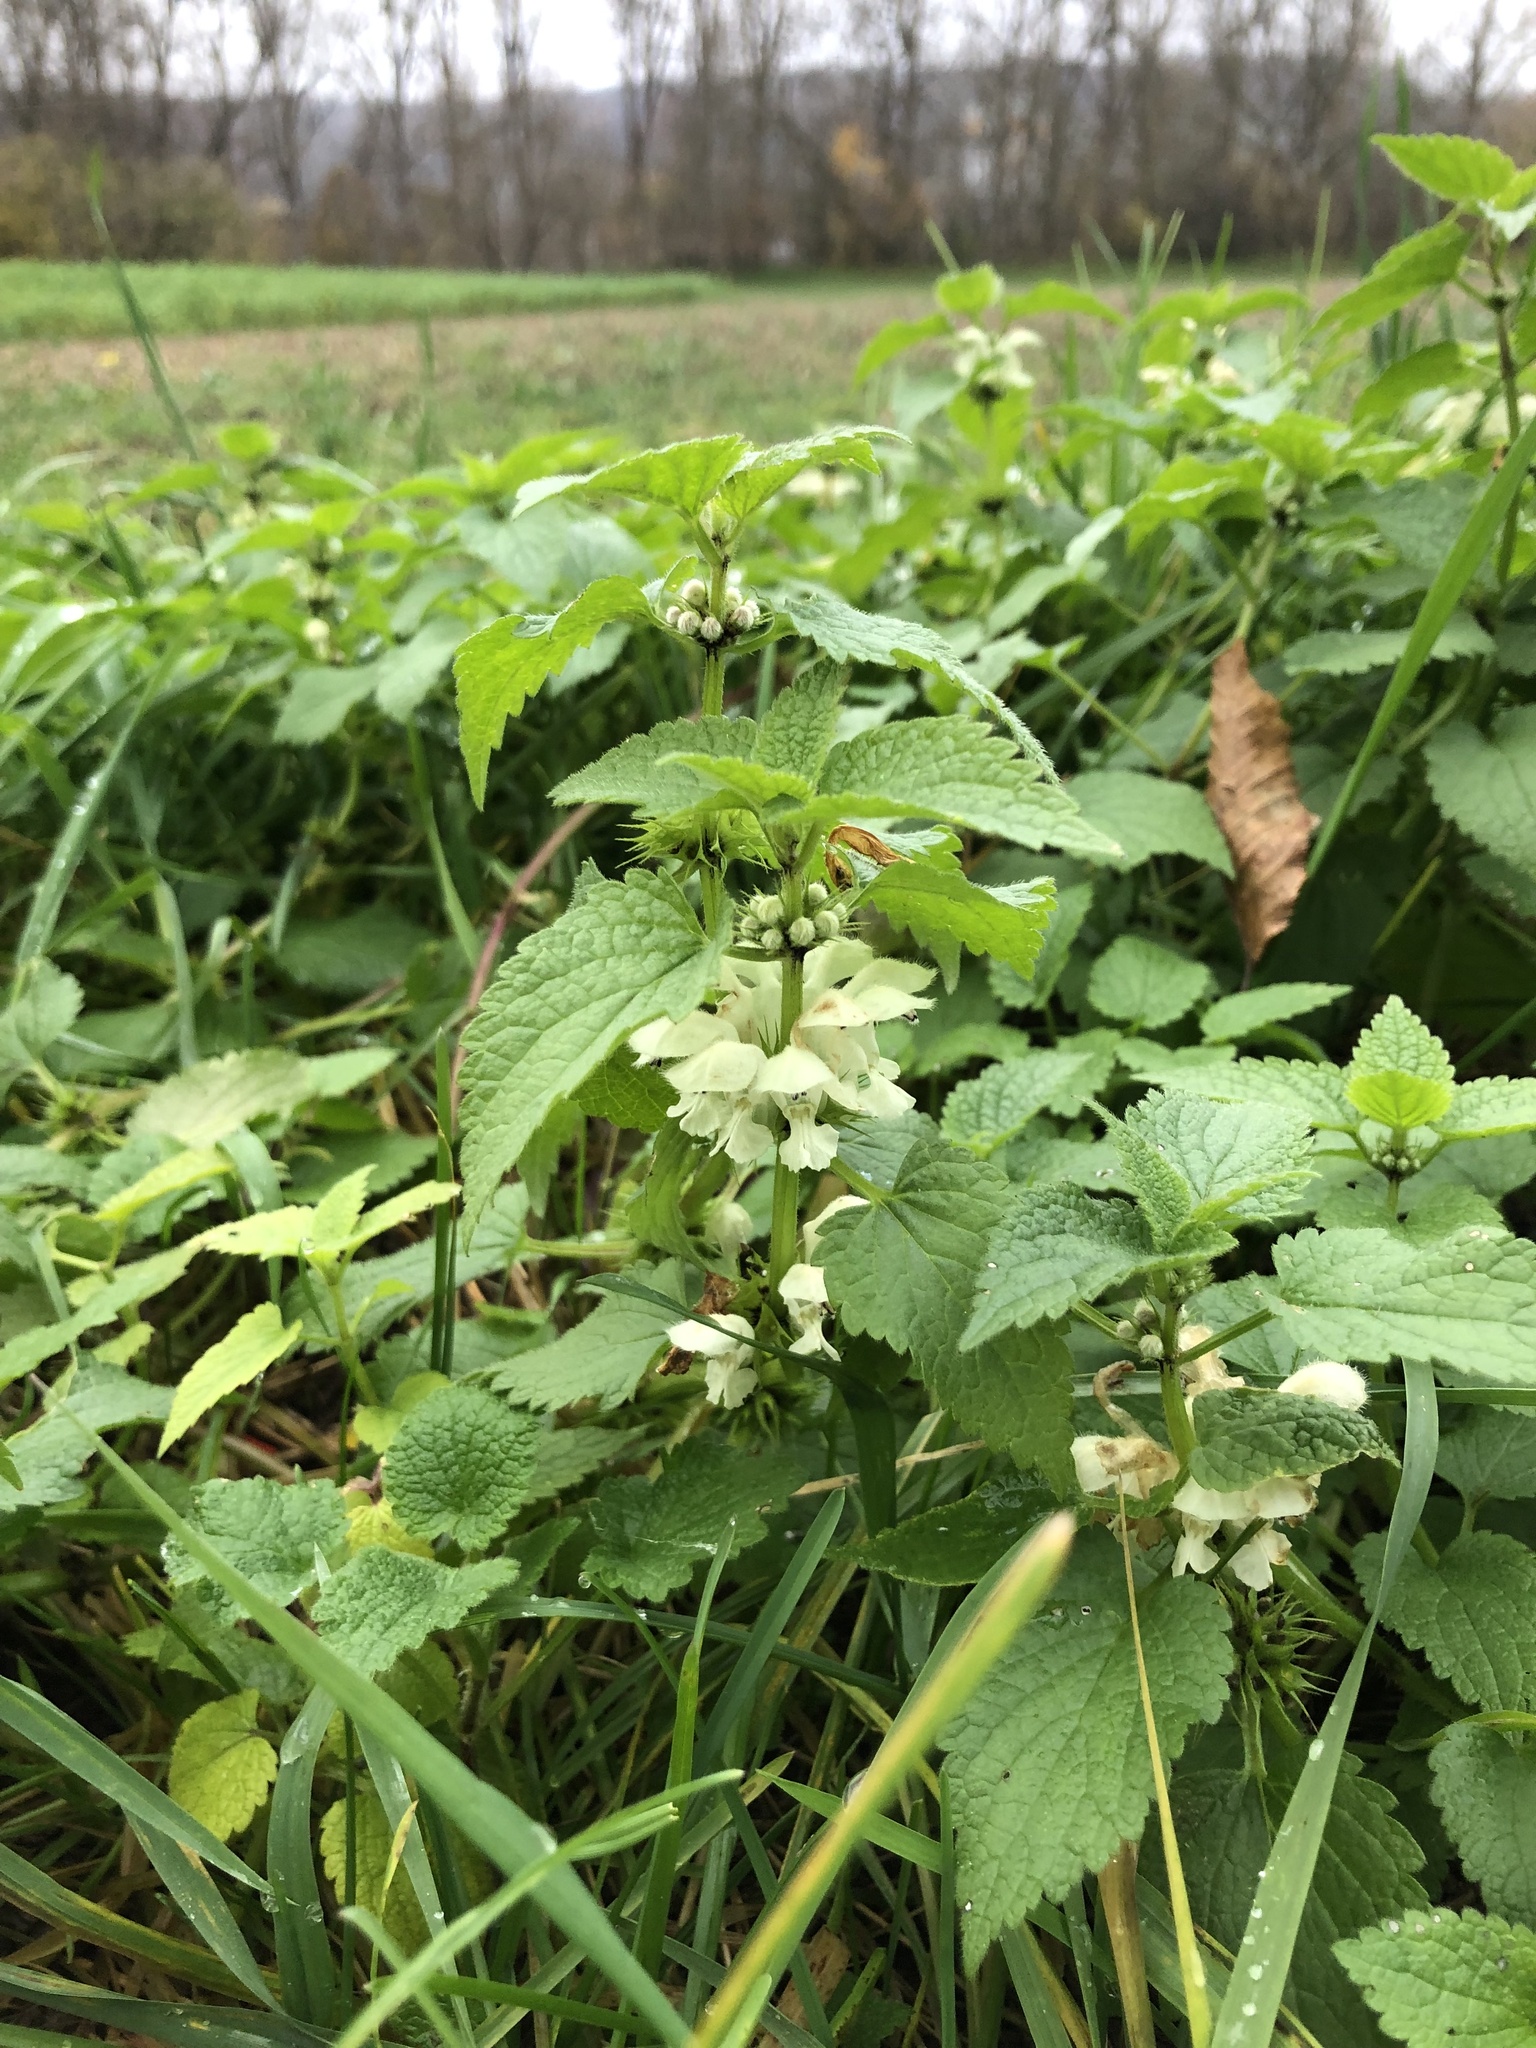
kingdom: Plantae
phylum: Tracheophyta
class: Magnoliopsida
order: Lamiales
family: Lamiaceae
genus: Lamium
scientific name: Lamium album
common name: White dead-nettle
